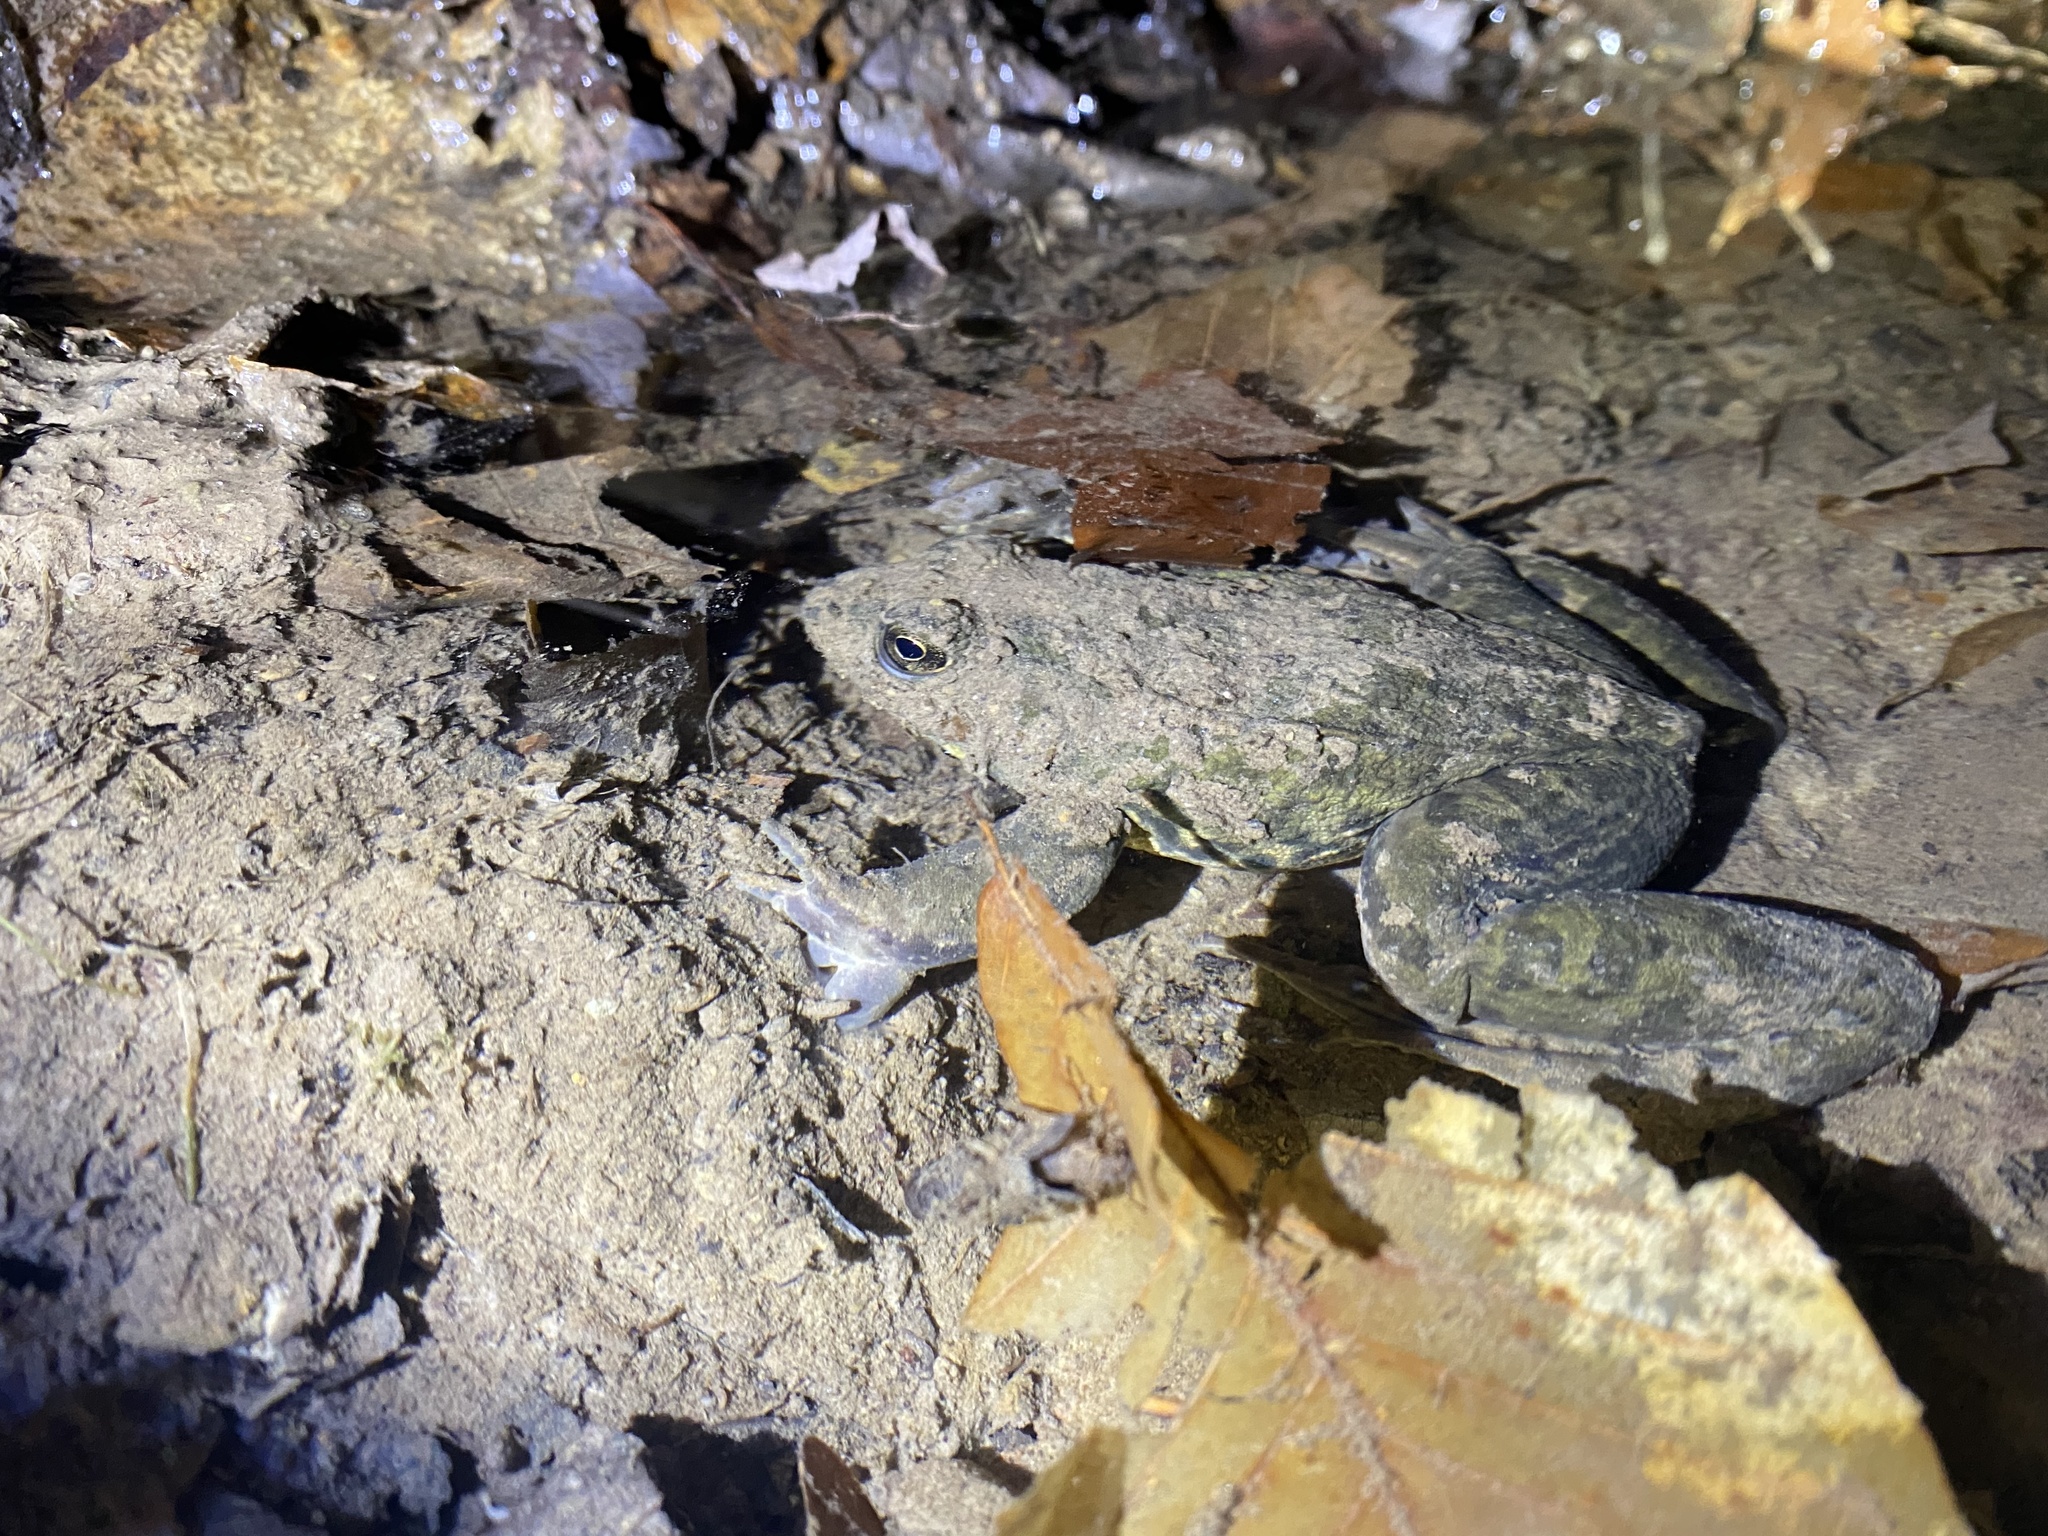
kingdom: Animalia
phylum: Chordata
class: Amphibia
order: Anura
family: Ranidae
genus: Lithobates
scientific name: Lithobates clamitans
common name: Green frog
